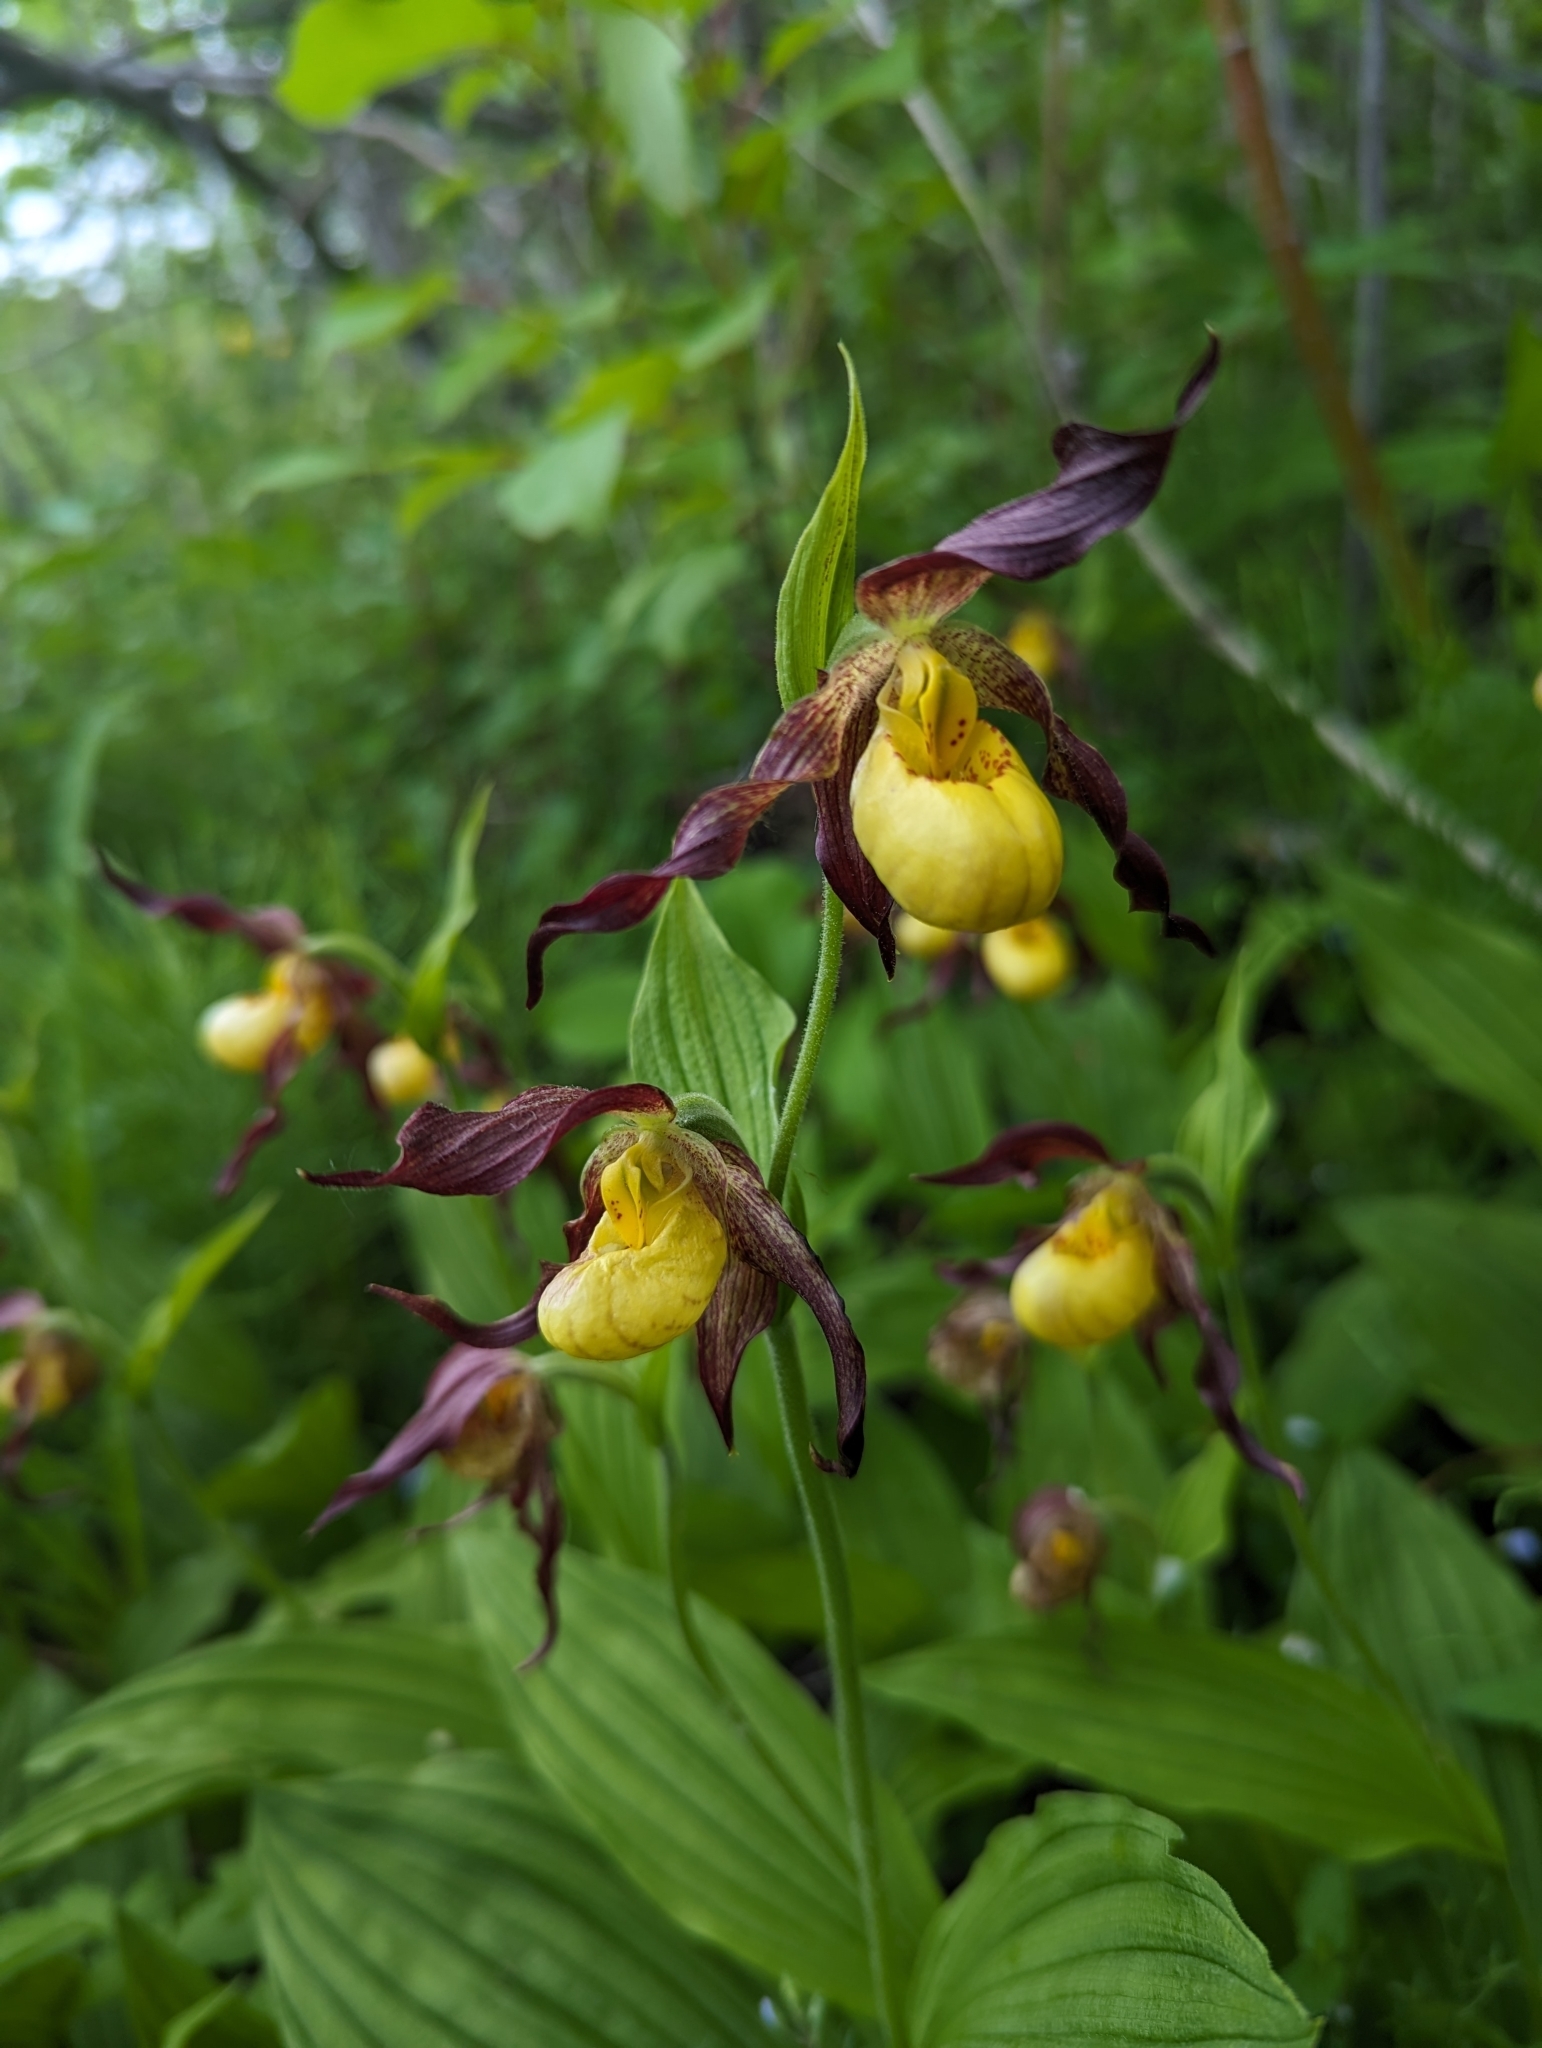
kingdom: Plantae
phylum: Tracheophyta
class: Liliopsida
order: Asparagales
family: Orchidaceae
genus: Cypripedium
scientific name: Cypripedium parviflorum
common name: American yellow lady's-slipper
